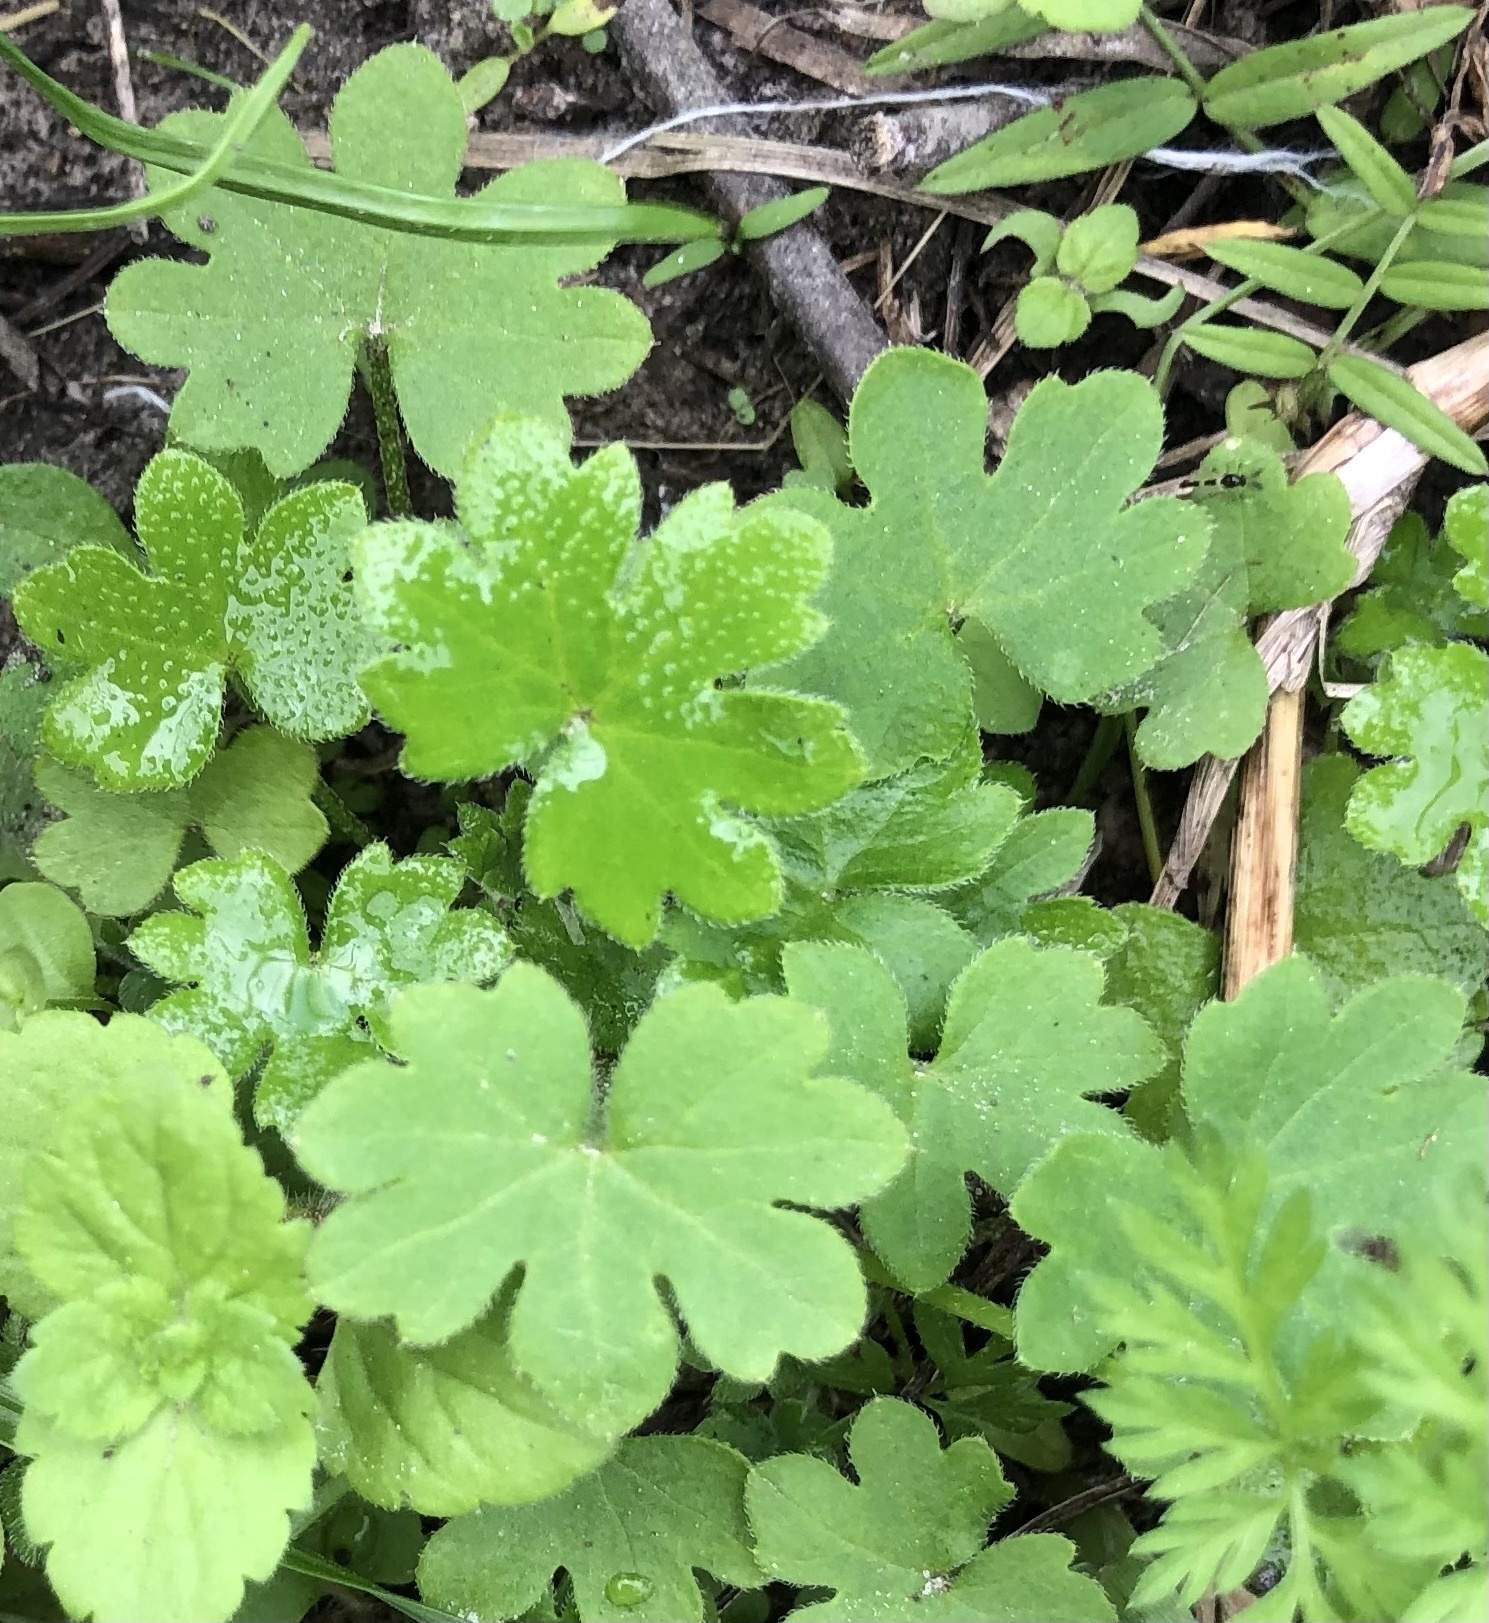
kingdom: Plantae
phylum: Tracheophyta
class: Magnoliopsida
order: Apiales
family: Apiaceae
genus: Bowlesia
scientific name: Bowlesia incana
